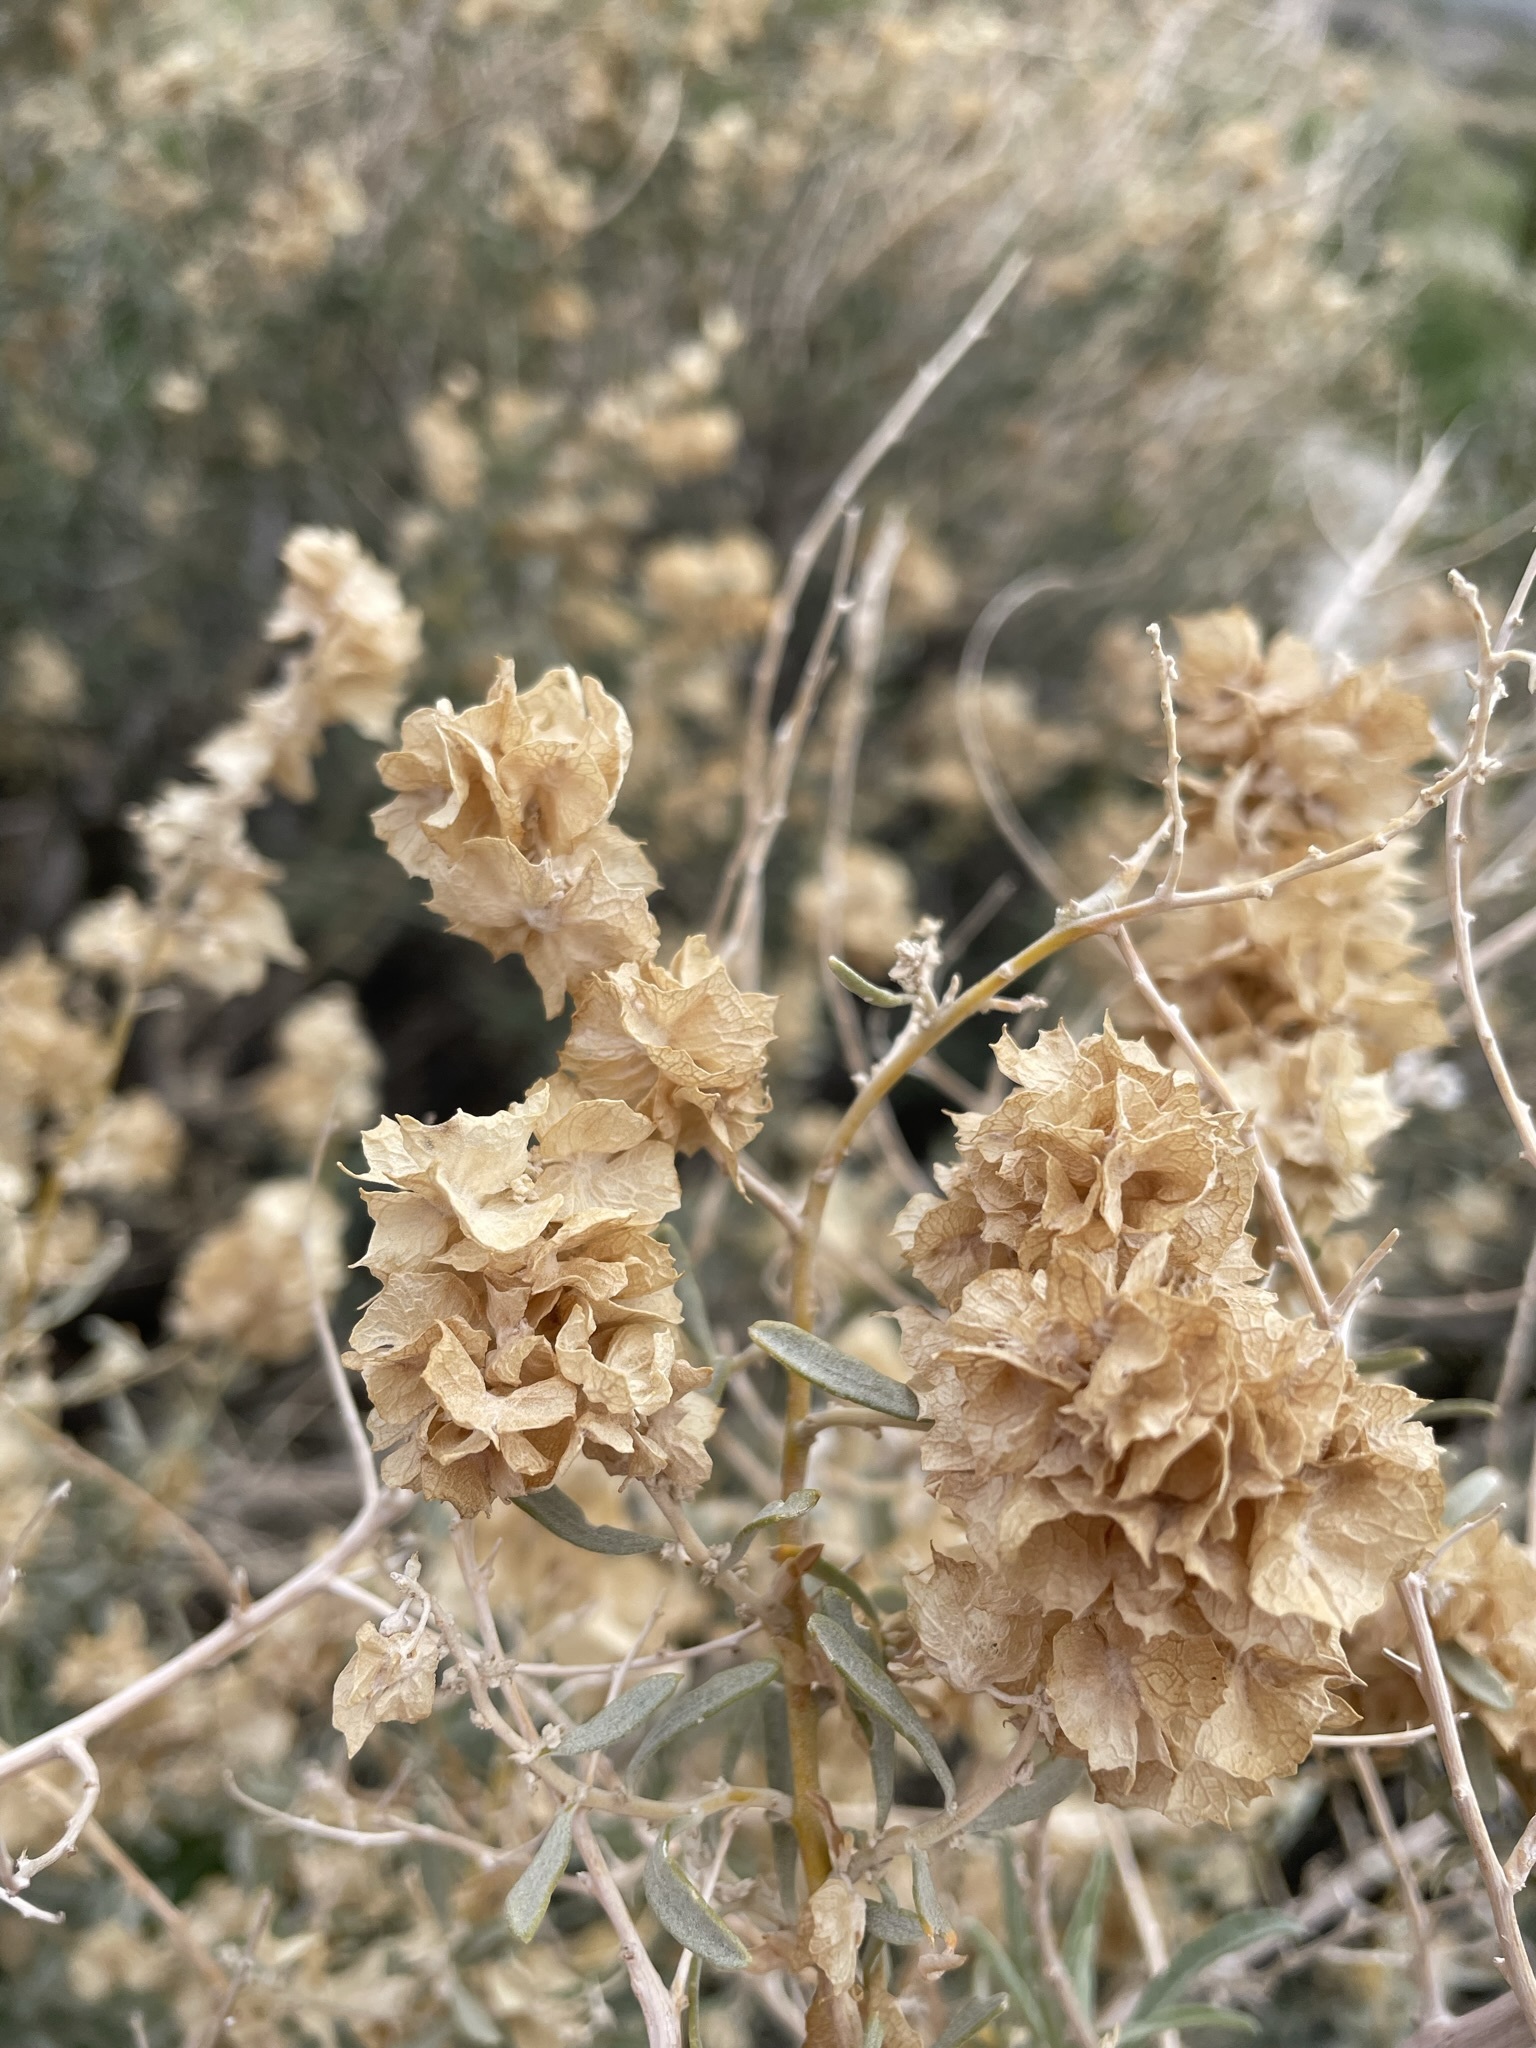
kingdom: Plantae
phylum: Tracheophyta
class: Magnoliopsida
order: Caryophyllales
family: Amaranthaceae
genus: Atriplex
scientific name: Atriplex canescens
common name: Four-wing saltbush
